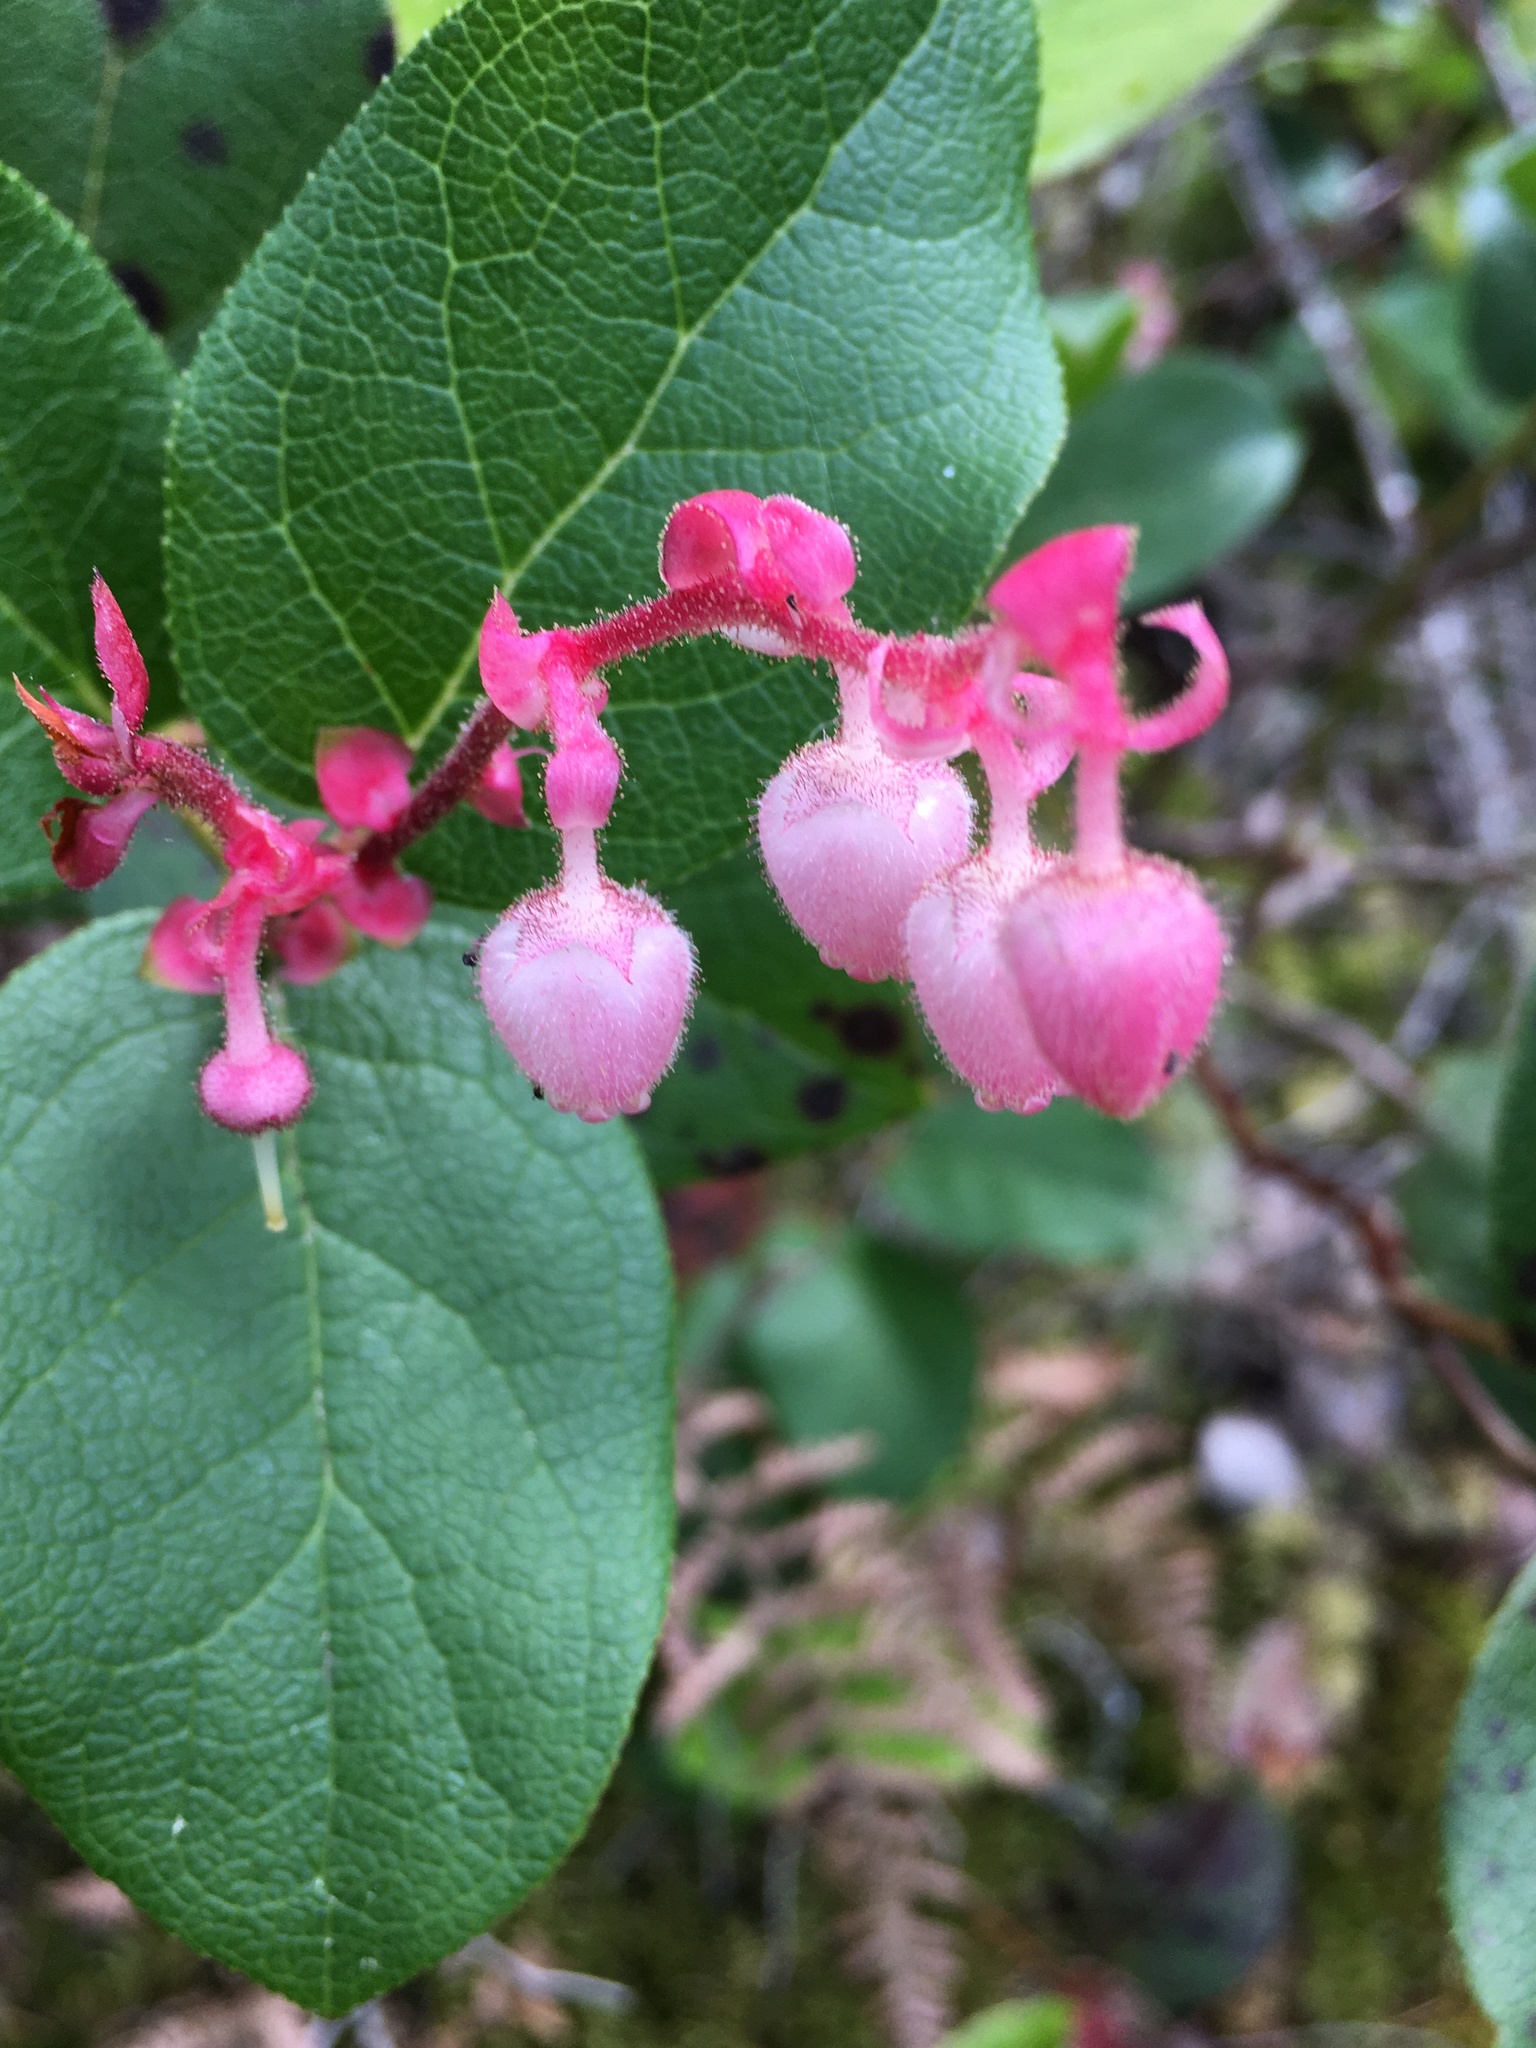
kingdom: Plantae
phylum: Tracheophyta
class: Magnoliopsida
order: Ericales
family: Ericaceae
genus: Gaultheria
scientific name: Gaultheria shallon
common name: Shallon
